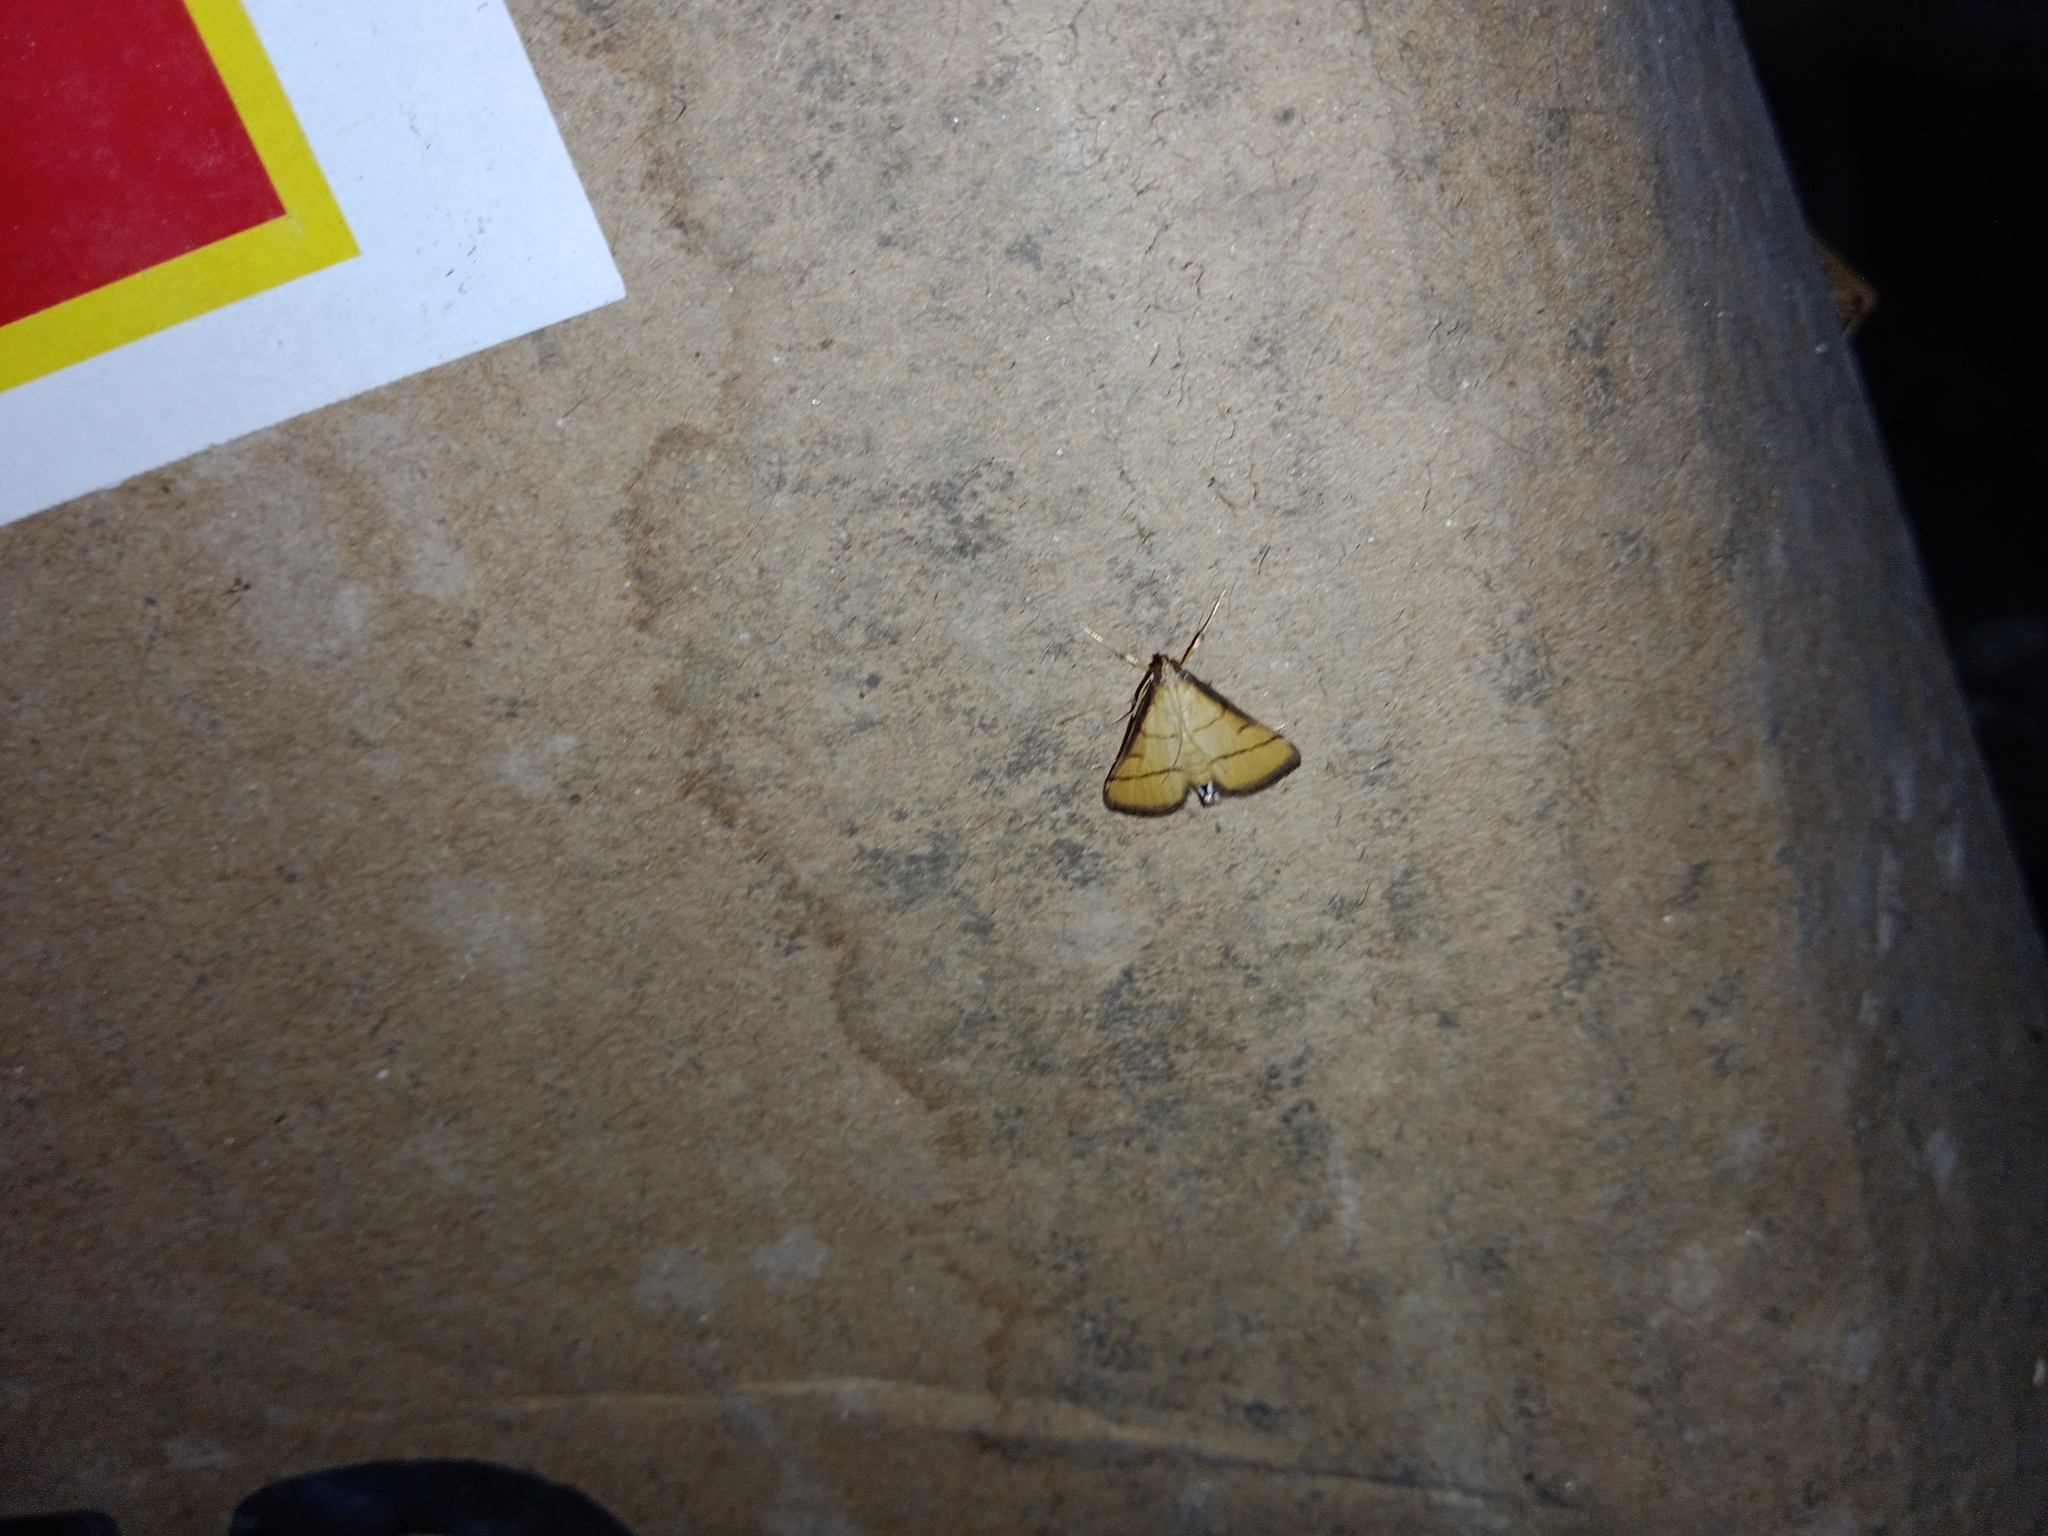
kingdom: Animalia
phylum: Arthropoda
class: Insecta
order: Lepidoptera
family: Crambidae
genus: Cnaphalocrocis
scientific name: Cnaphalocrocis medinalis
